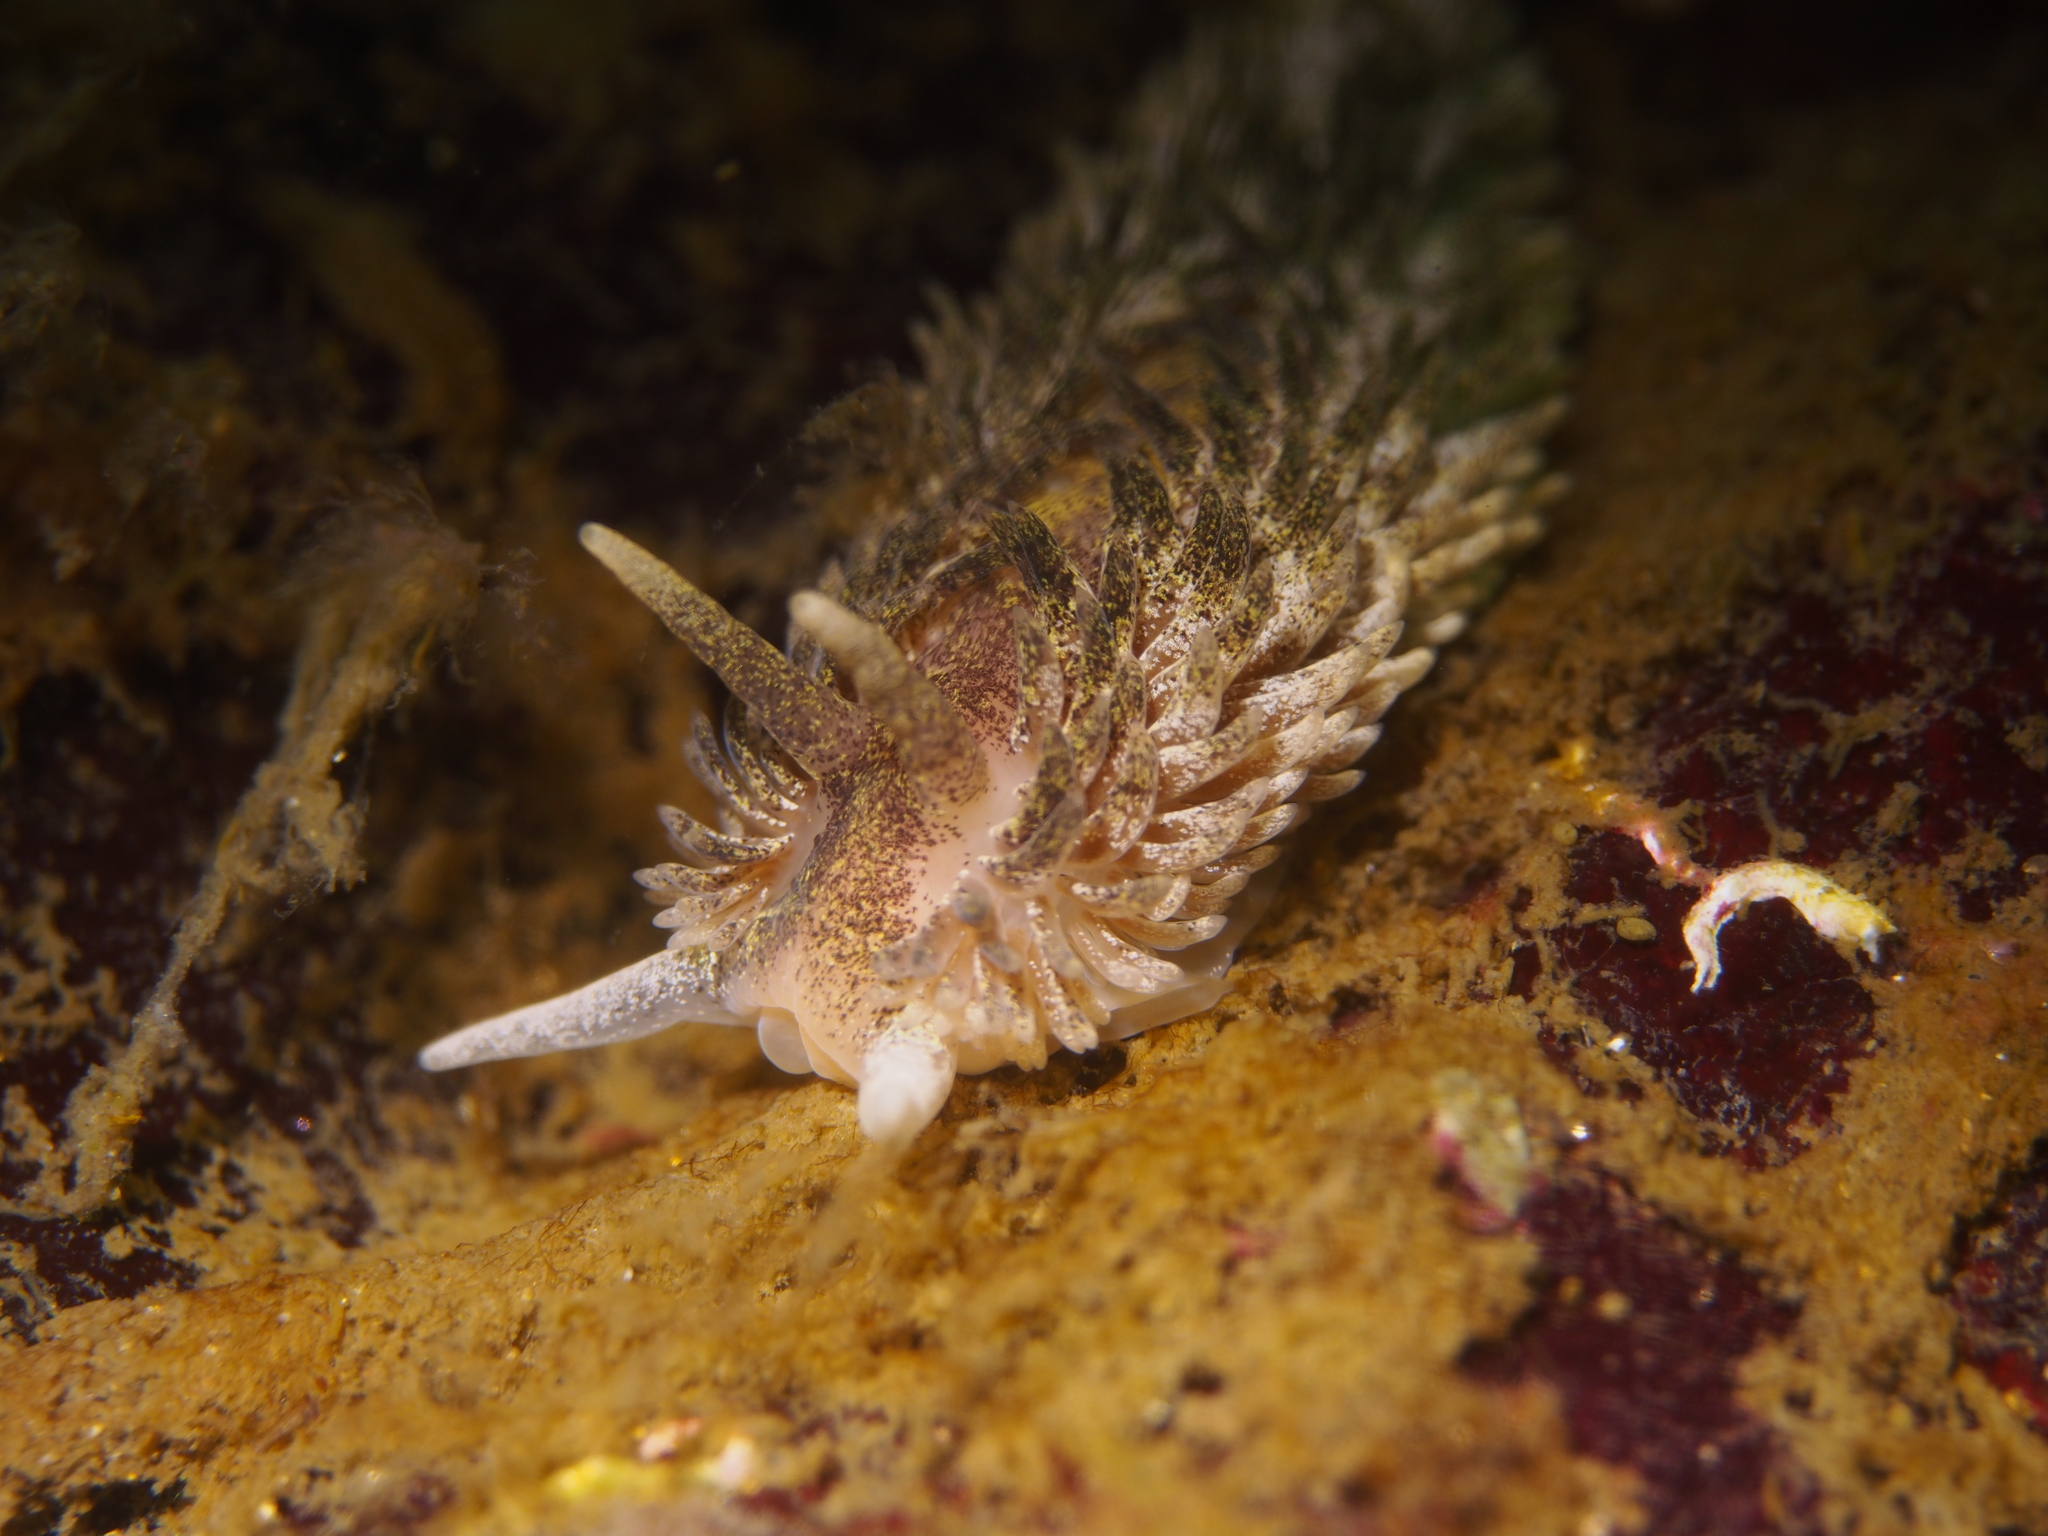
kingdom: Animalia
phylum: Mollusca
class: Gastropoda
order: Nudibranchia
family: Aeolidiidae
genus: Aeolidia
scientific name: Aeolidia papillosa
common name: Common grey sea slug
